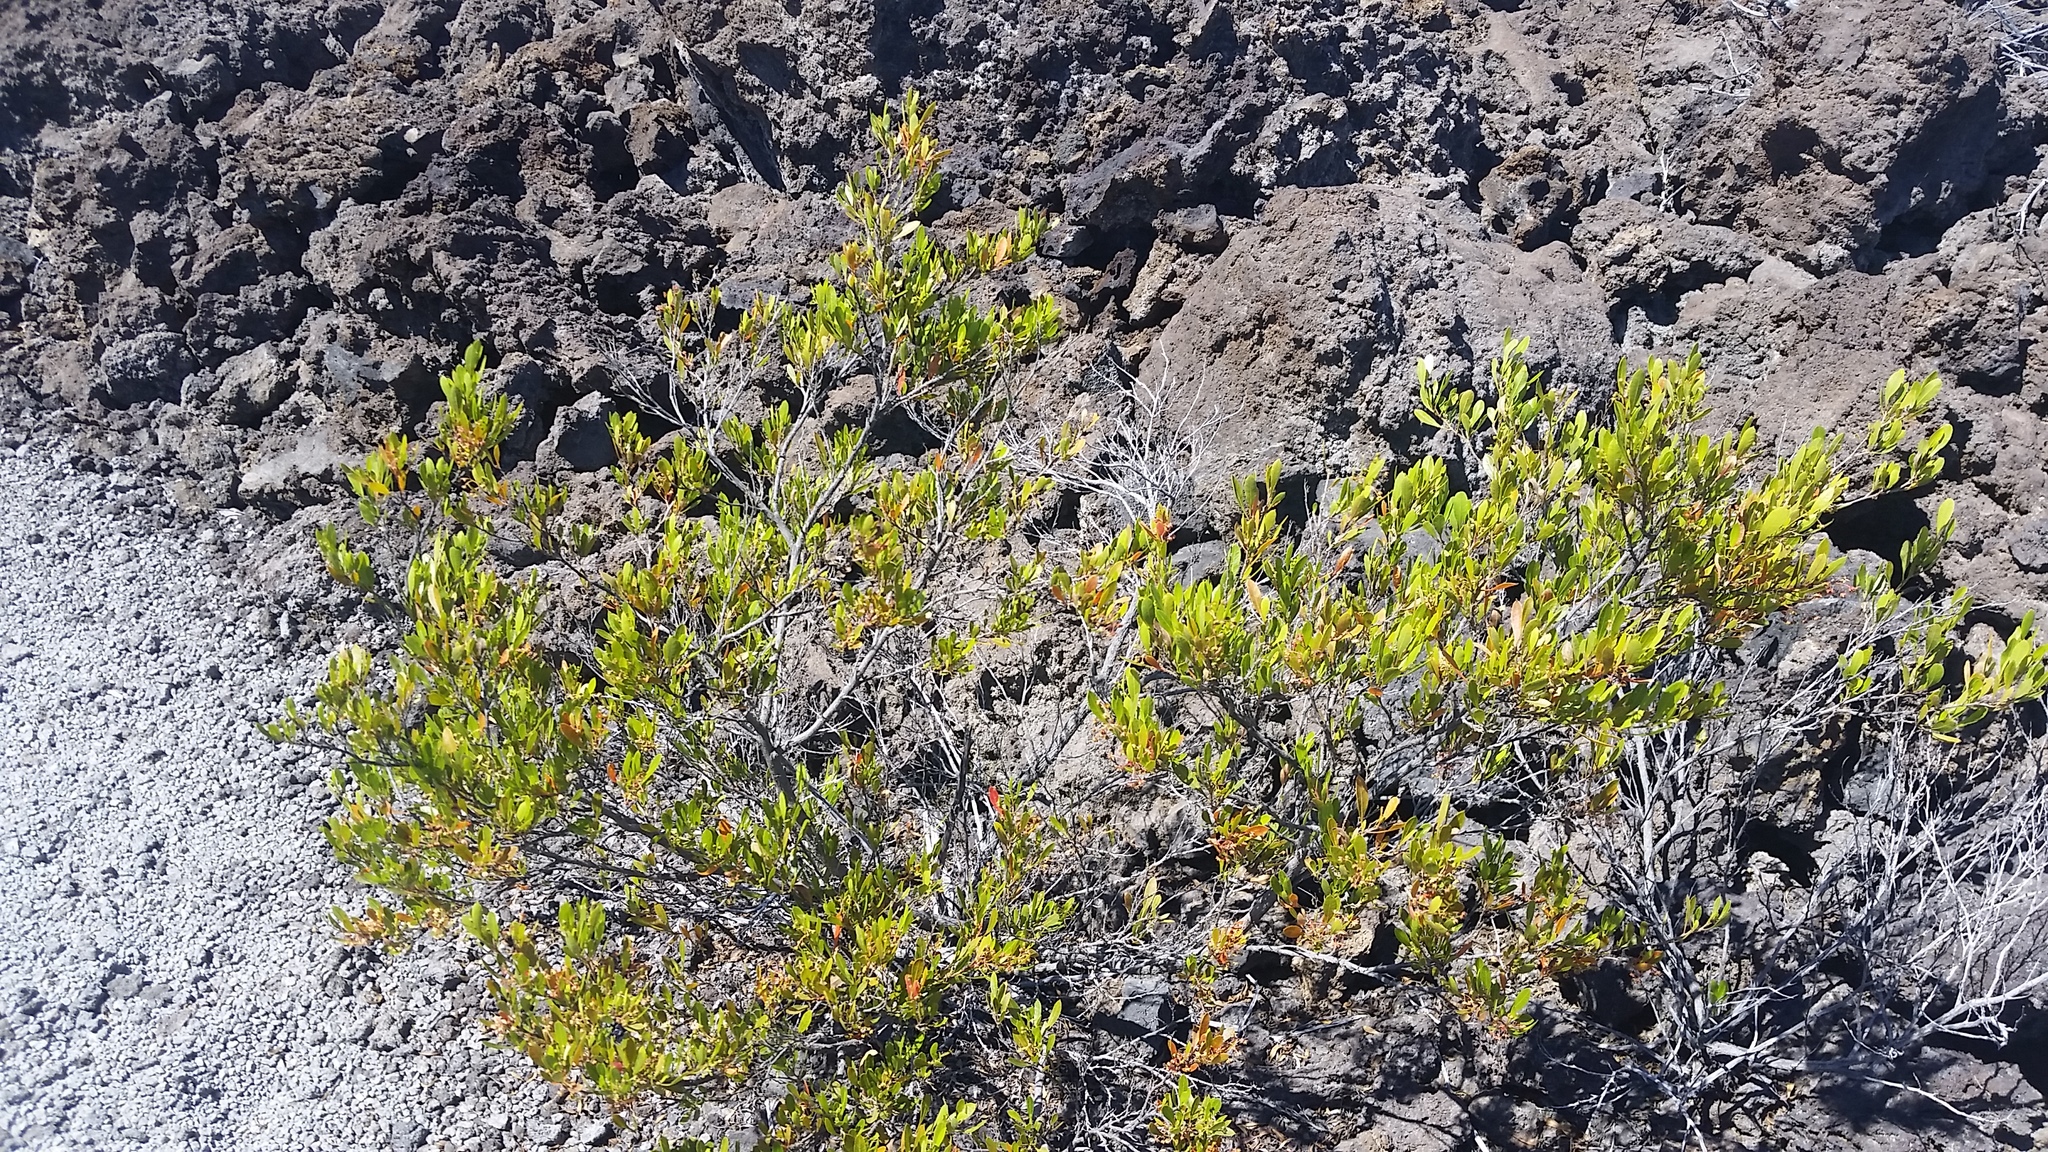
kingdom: Plantae
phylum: Tracheophyta
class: Magnoliopsida
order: Sapindales
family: Sapindaceae
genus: Dodonaea
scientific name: Dodonaea viscosa
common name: Hopbush
